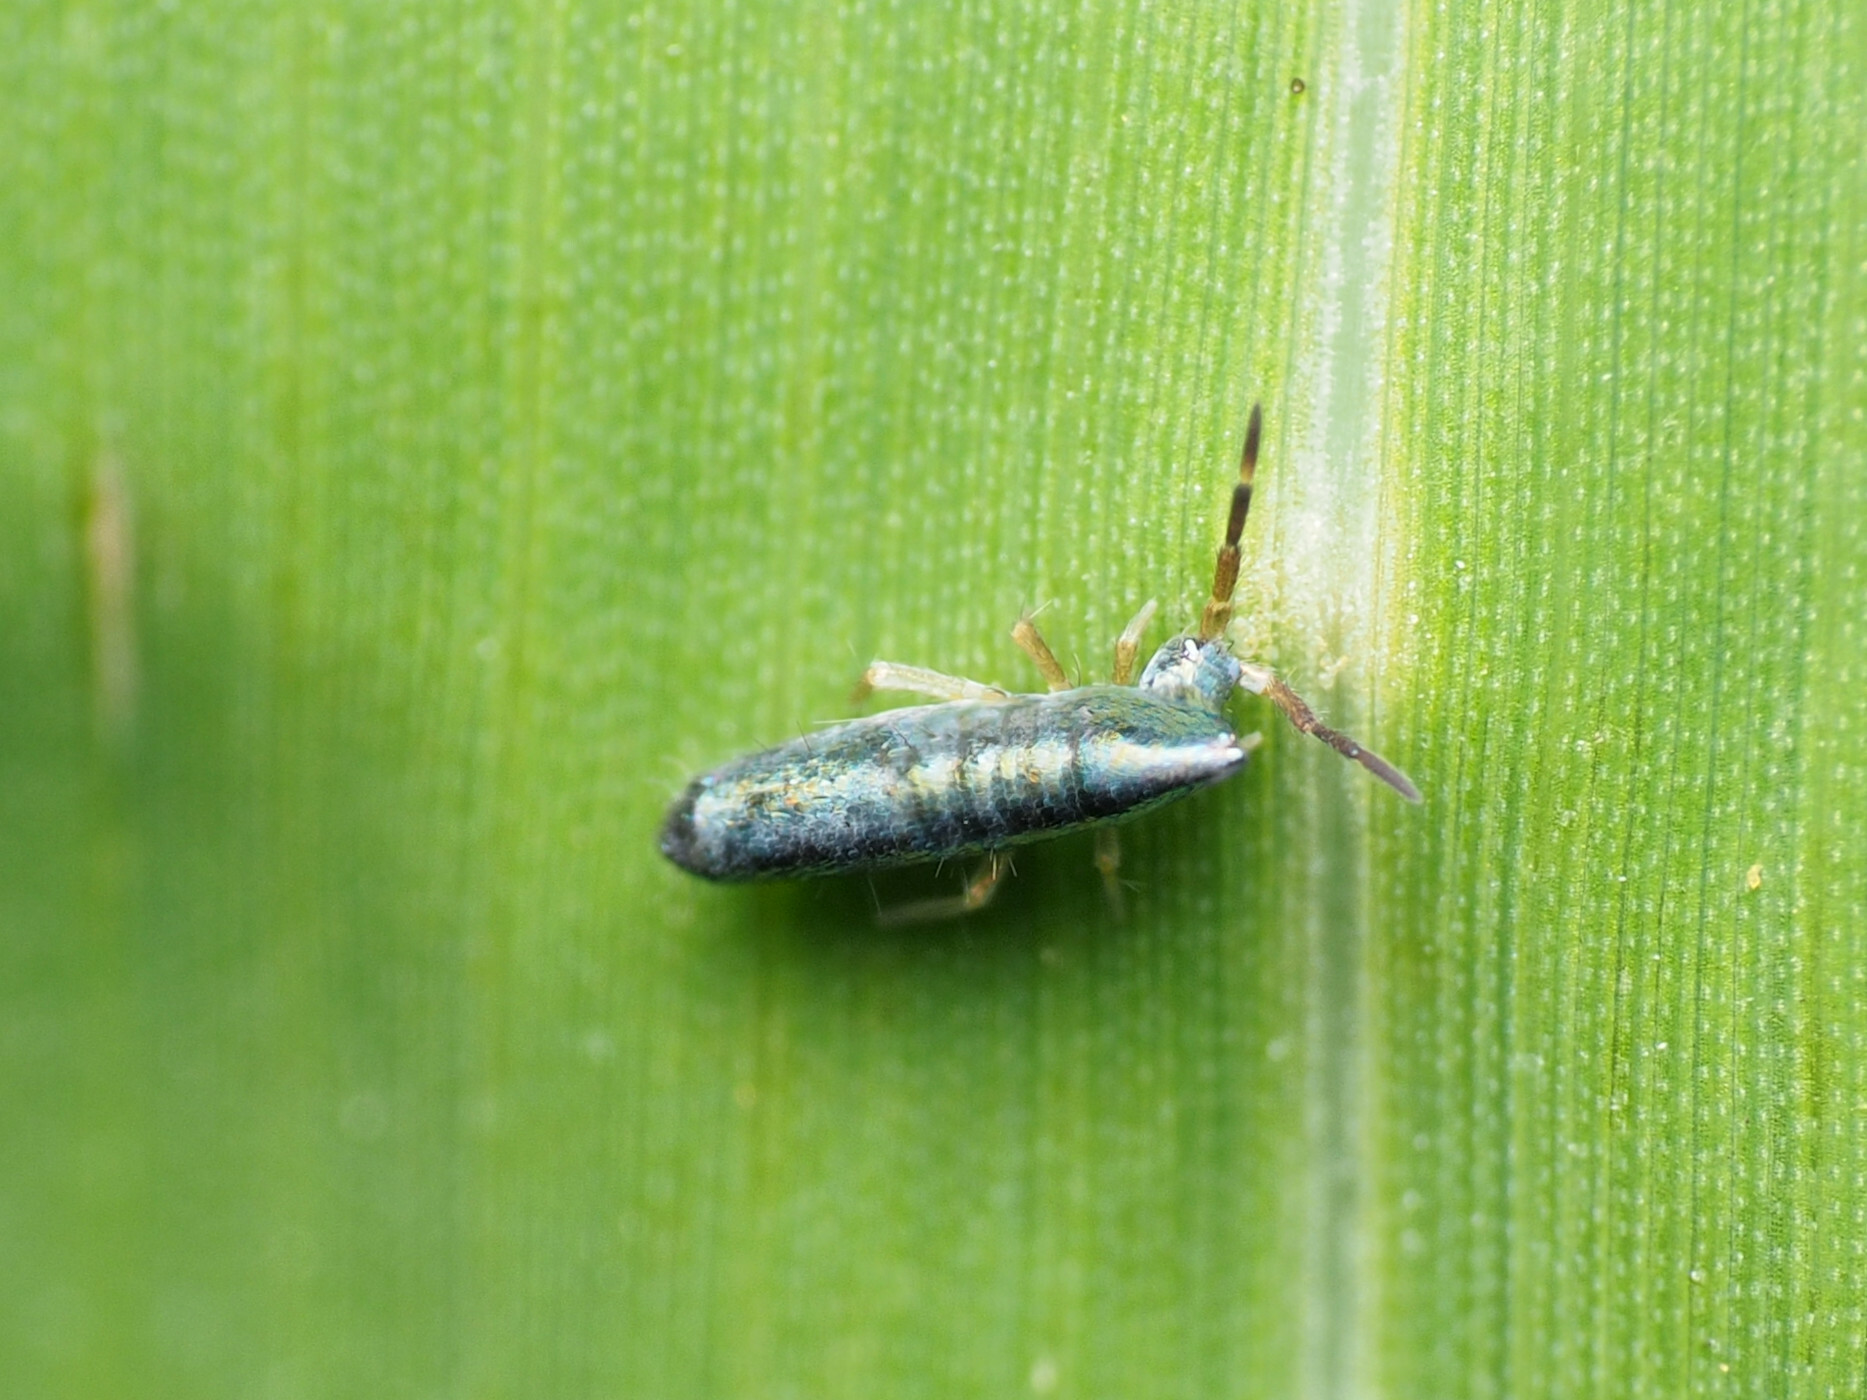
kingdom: Animalia
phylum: Arthropoda
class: Collembola
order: Entomobryomorpha
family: Entomobryidae
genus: Lepidocyrtus
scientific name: Lepidocyrtus paradoxus
